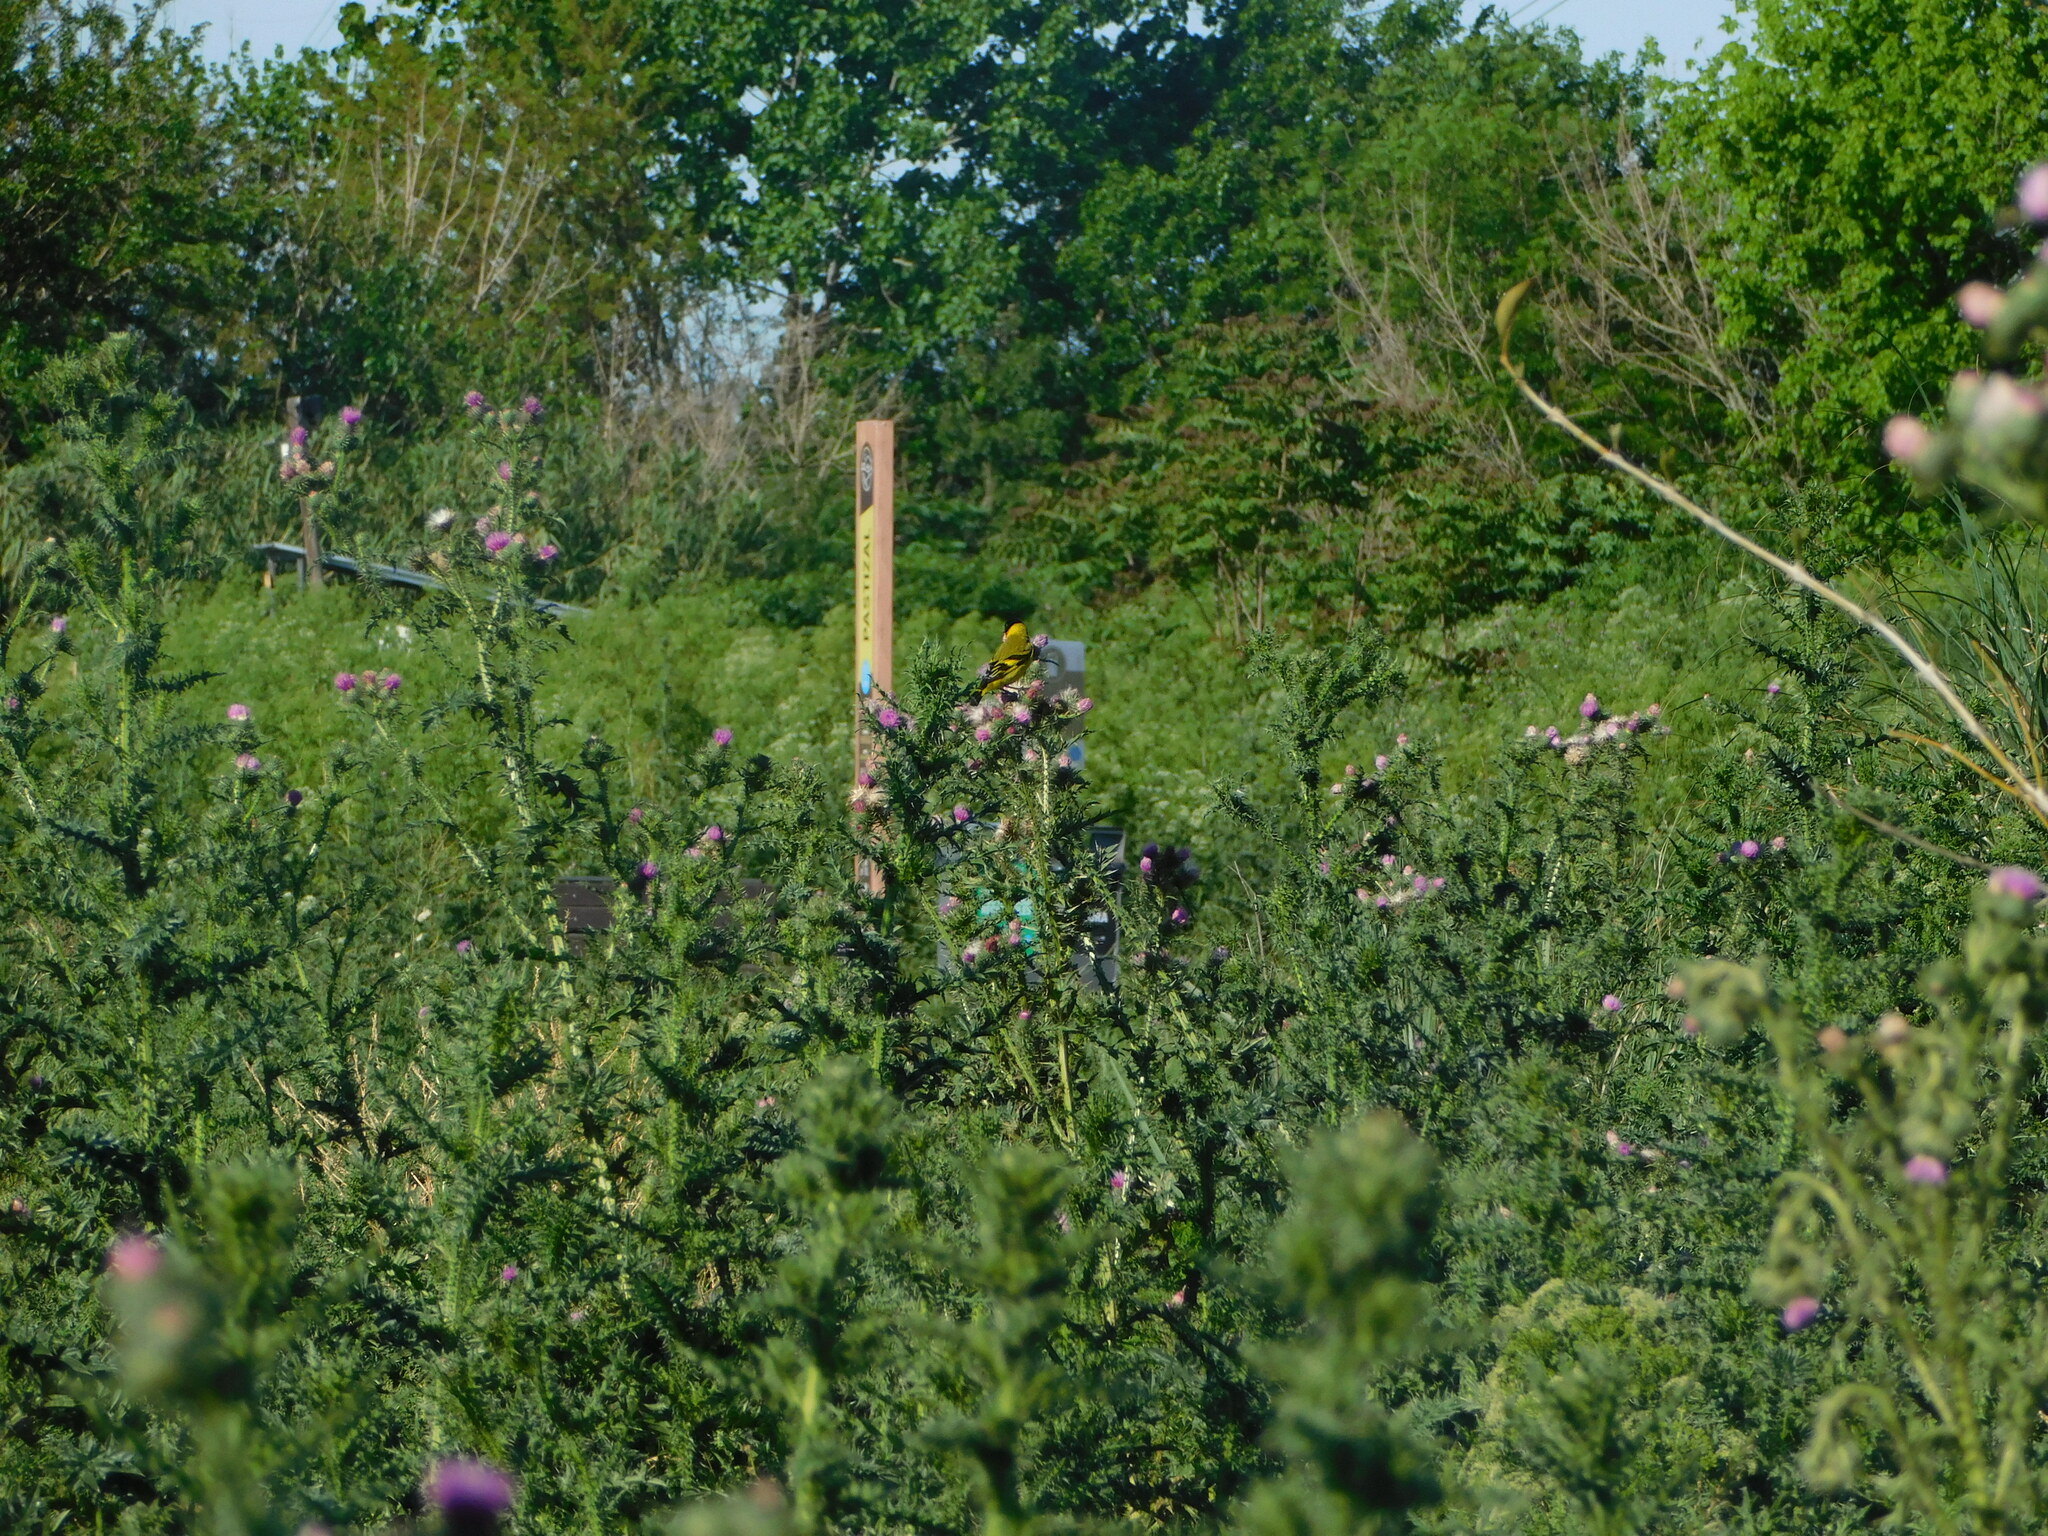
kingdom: Animalia
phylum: Chordata
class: Aves
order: Passeriformes
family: Fringillidae
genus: Spinus
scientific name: Spinus magellanicus
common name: Hooded siskin
